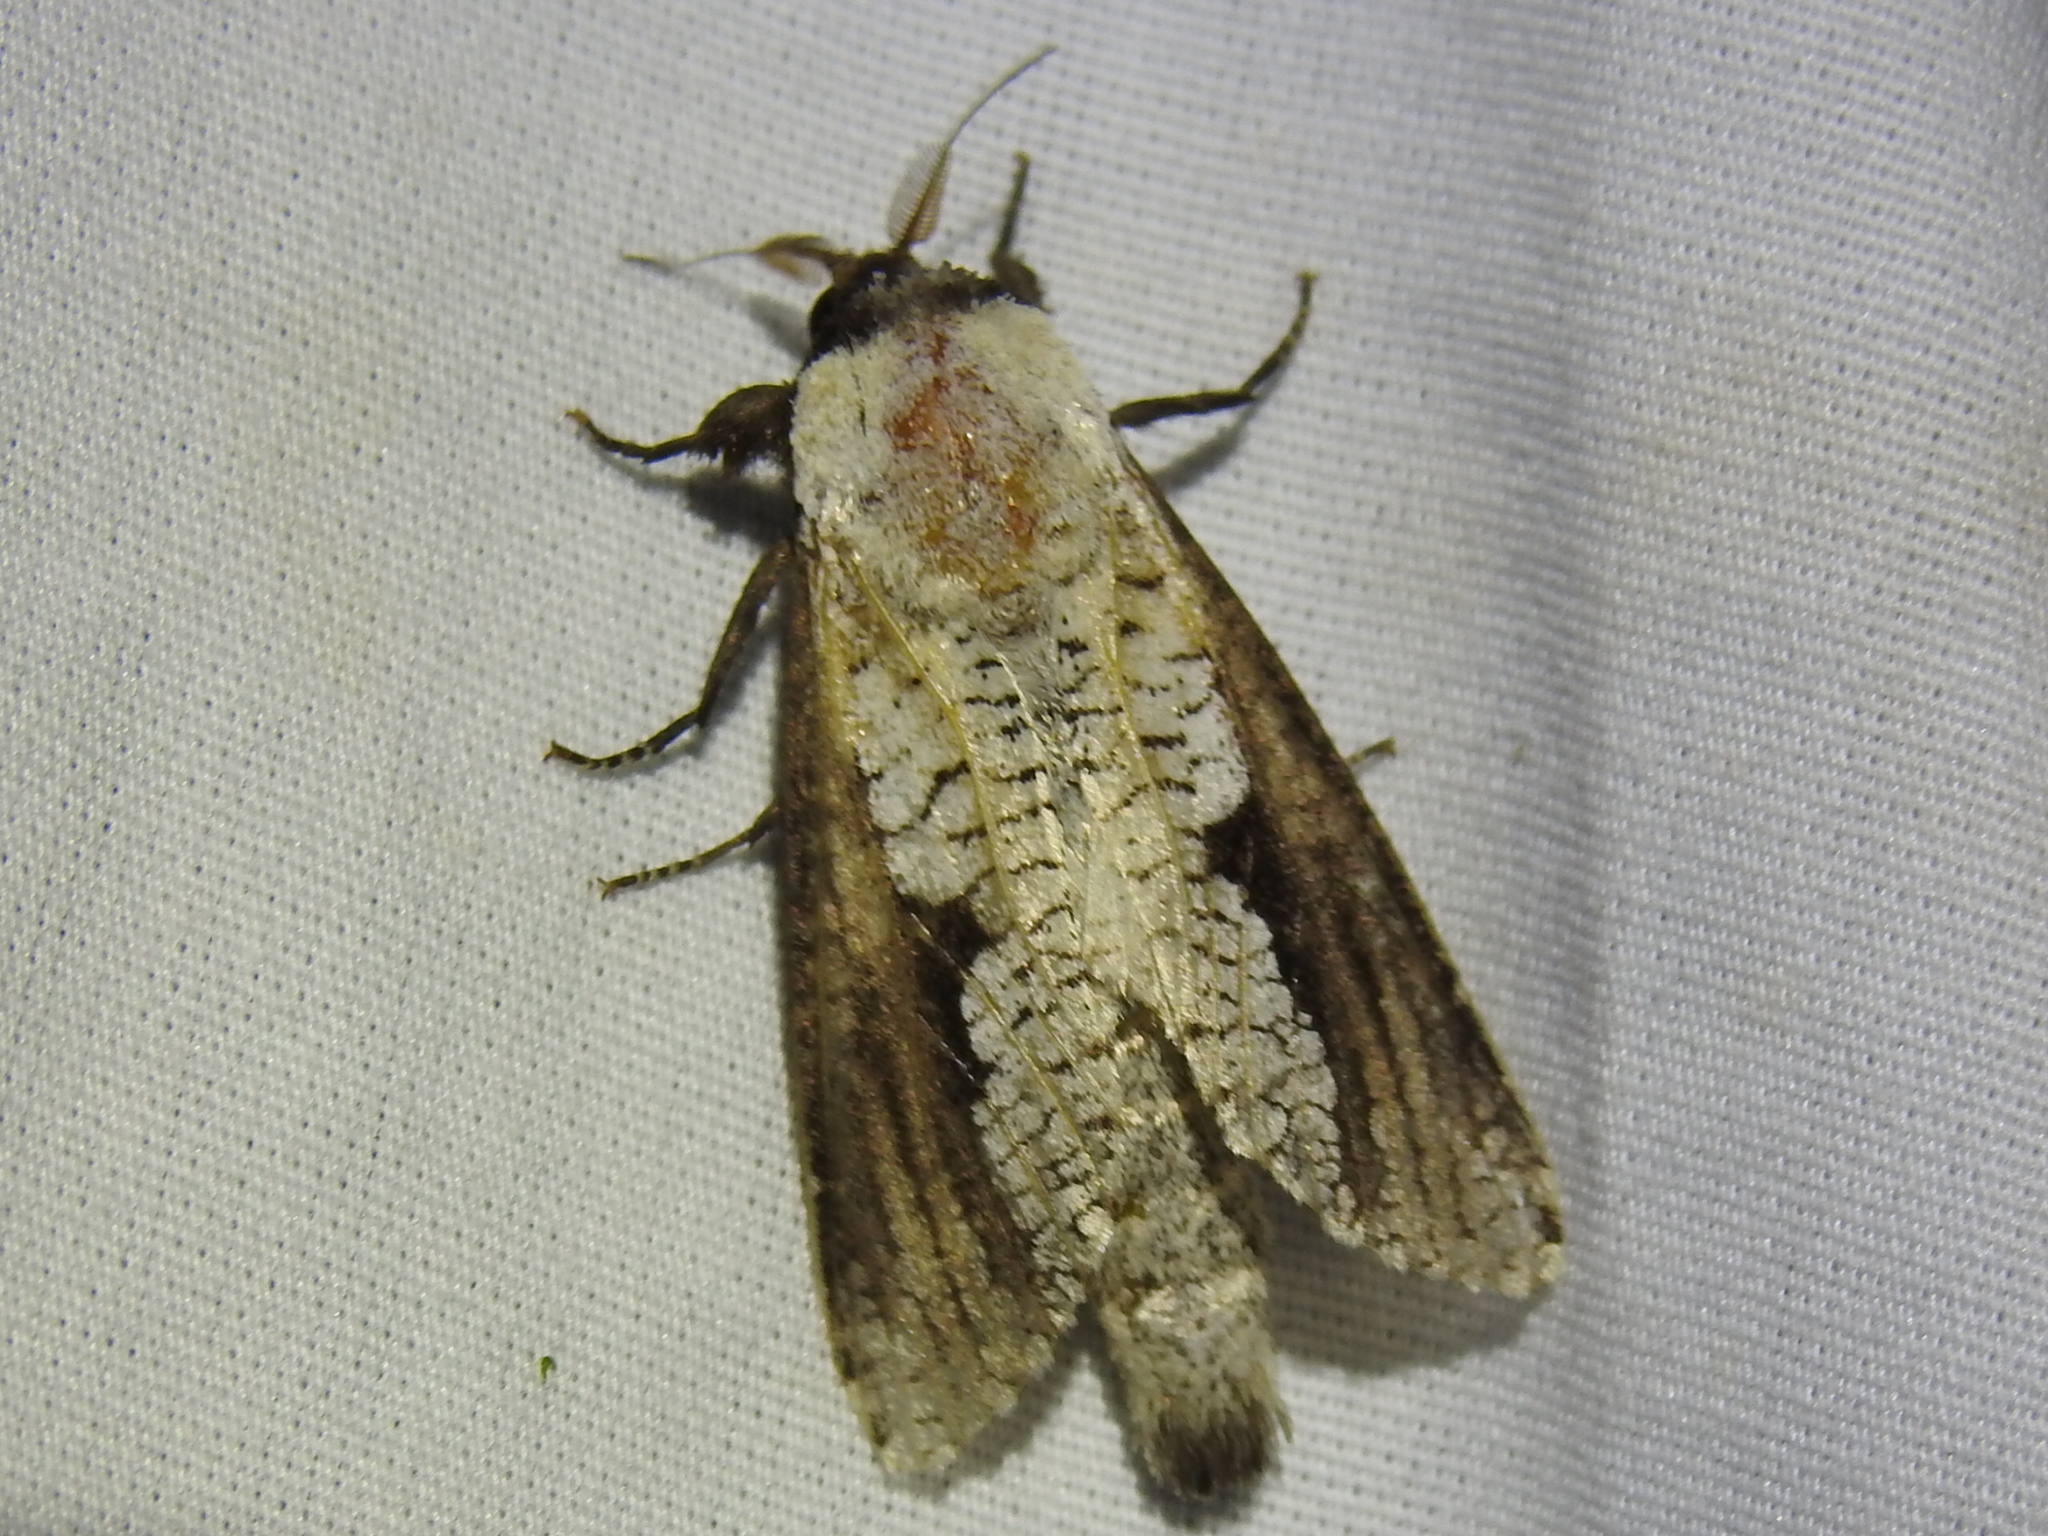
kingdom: Animalia
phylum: Arthropoda
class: Insecta
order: Lepidoptera
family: Cossidae
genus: Brypoctia
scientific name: Brypoctia
